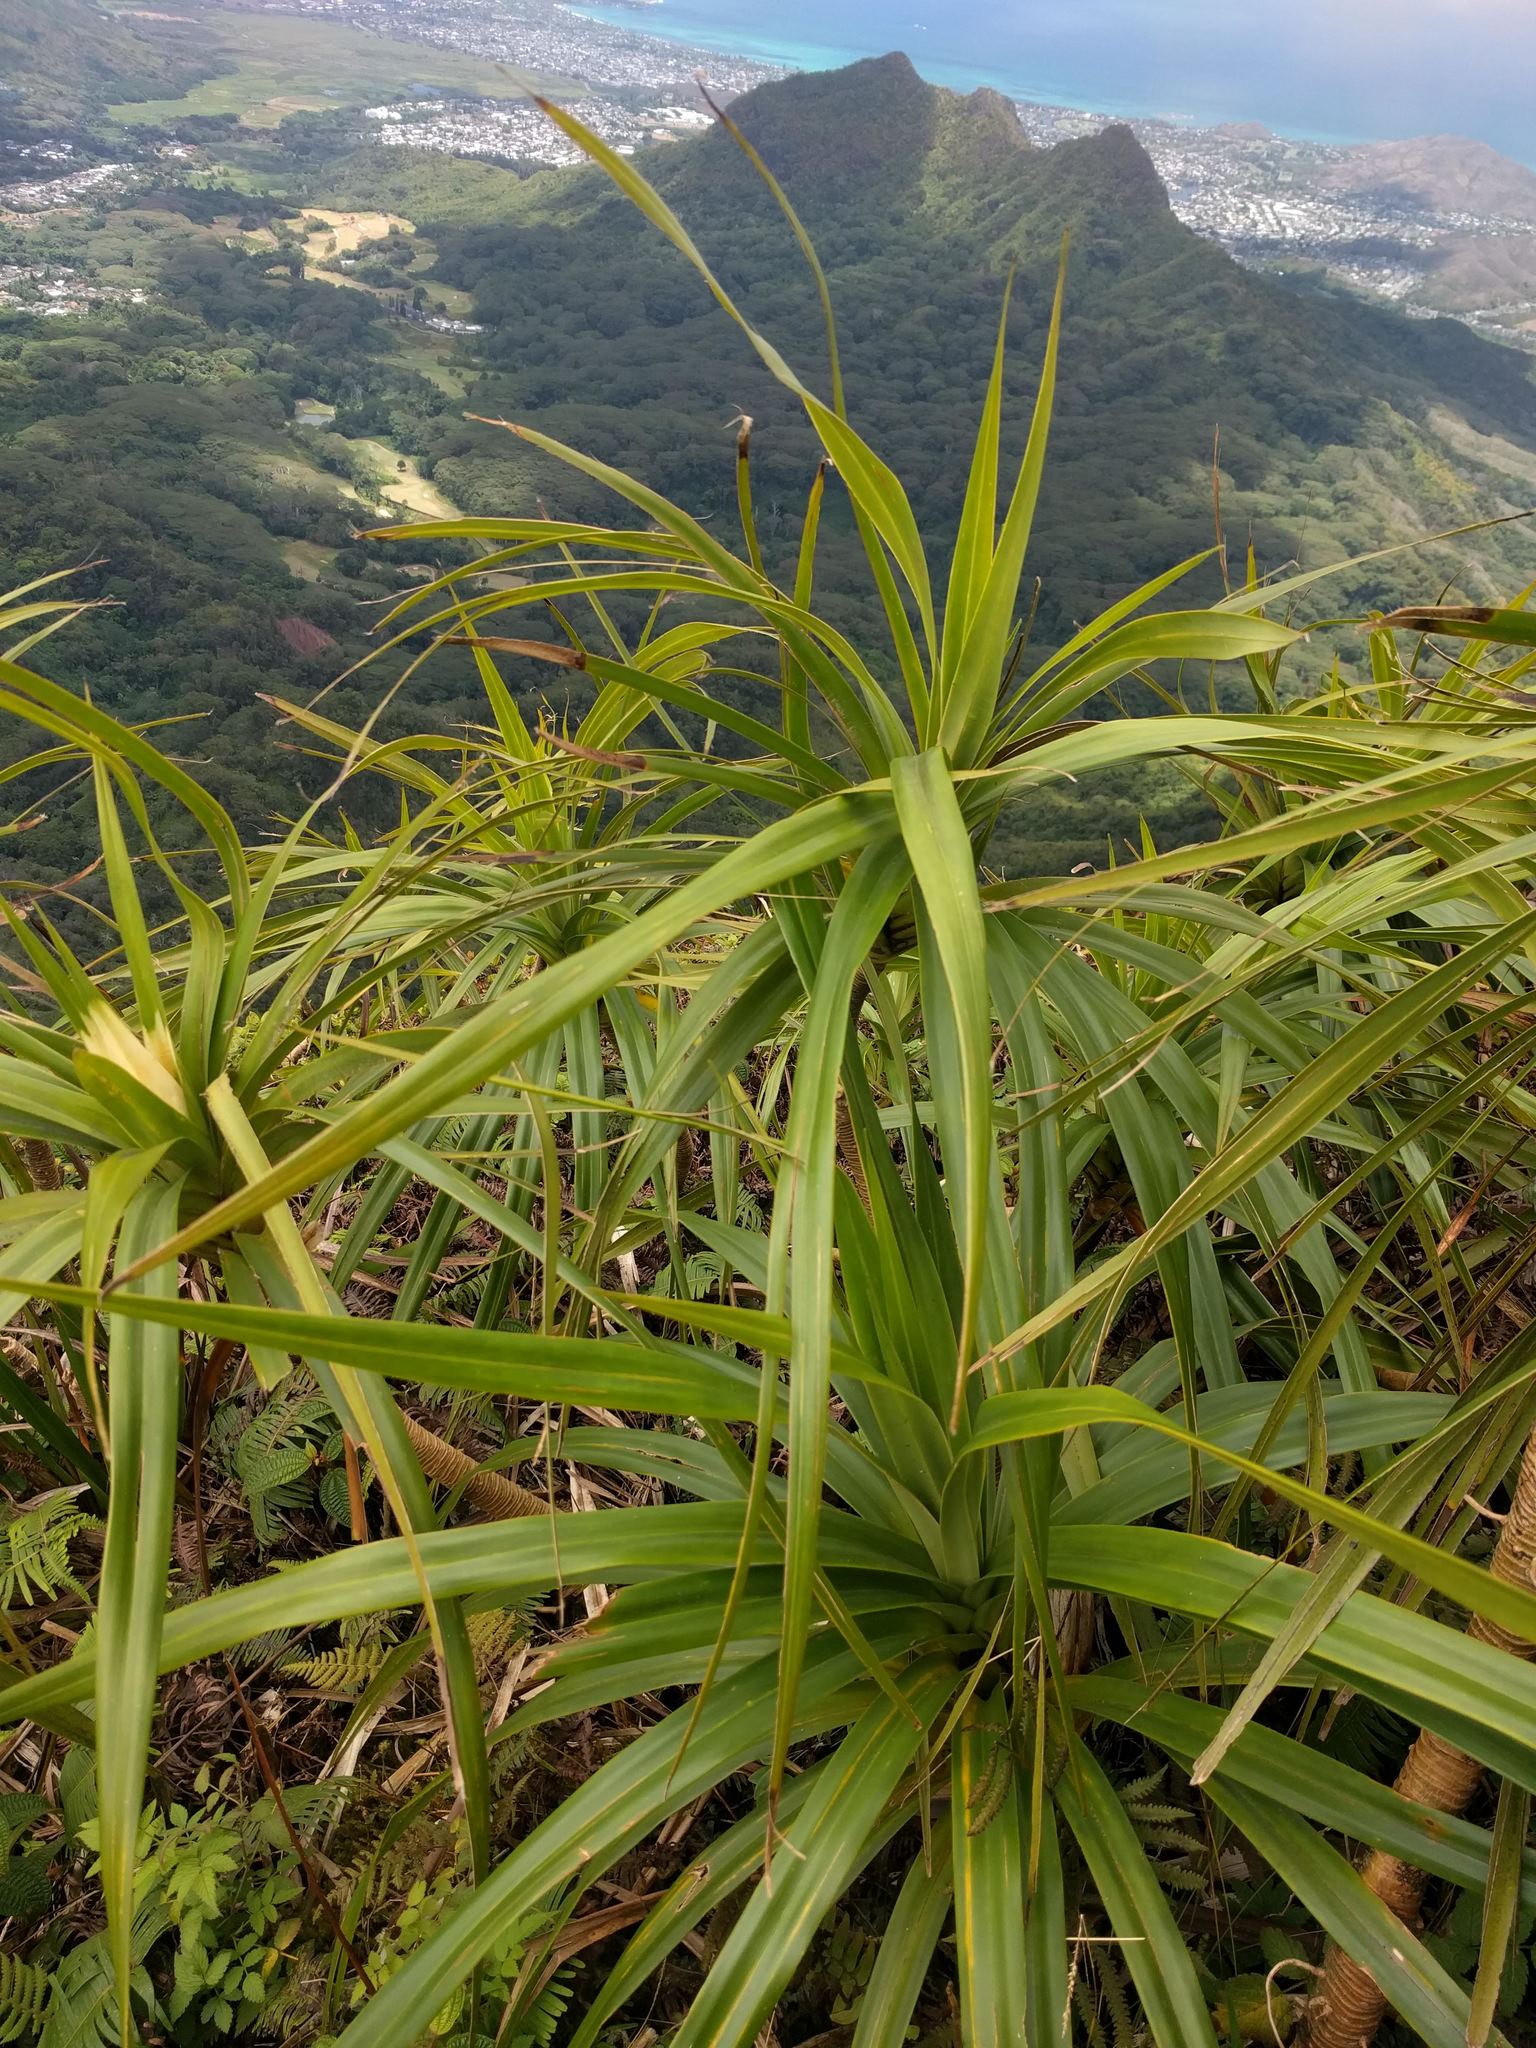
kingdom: Plantae
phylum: Tracheophyta
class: Liliopsida
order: Pandanales
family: Pandanaceae
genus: Freycinetia
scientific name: Freycinetia arborea
